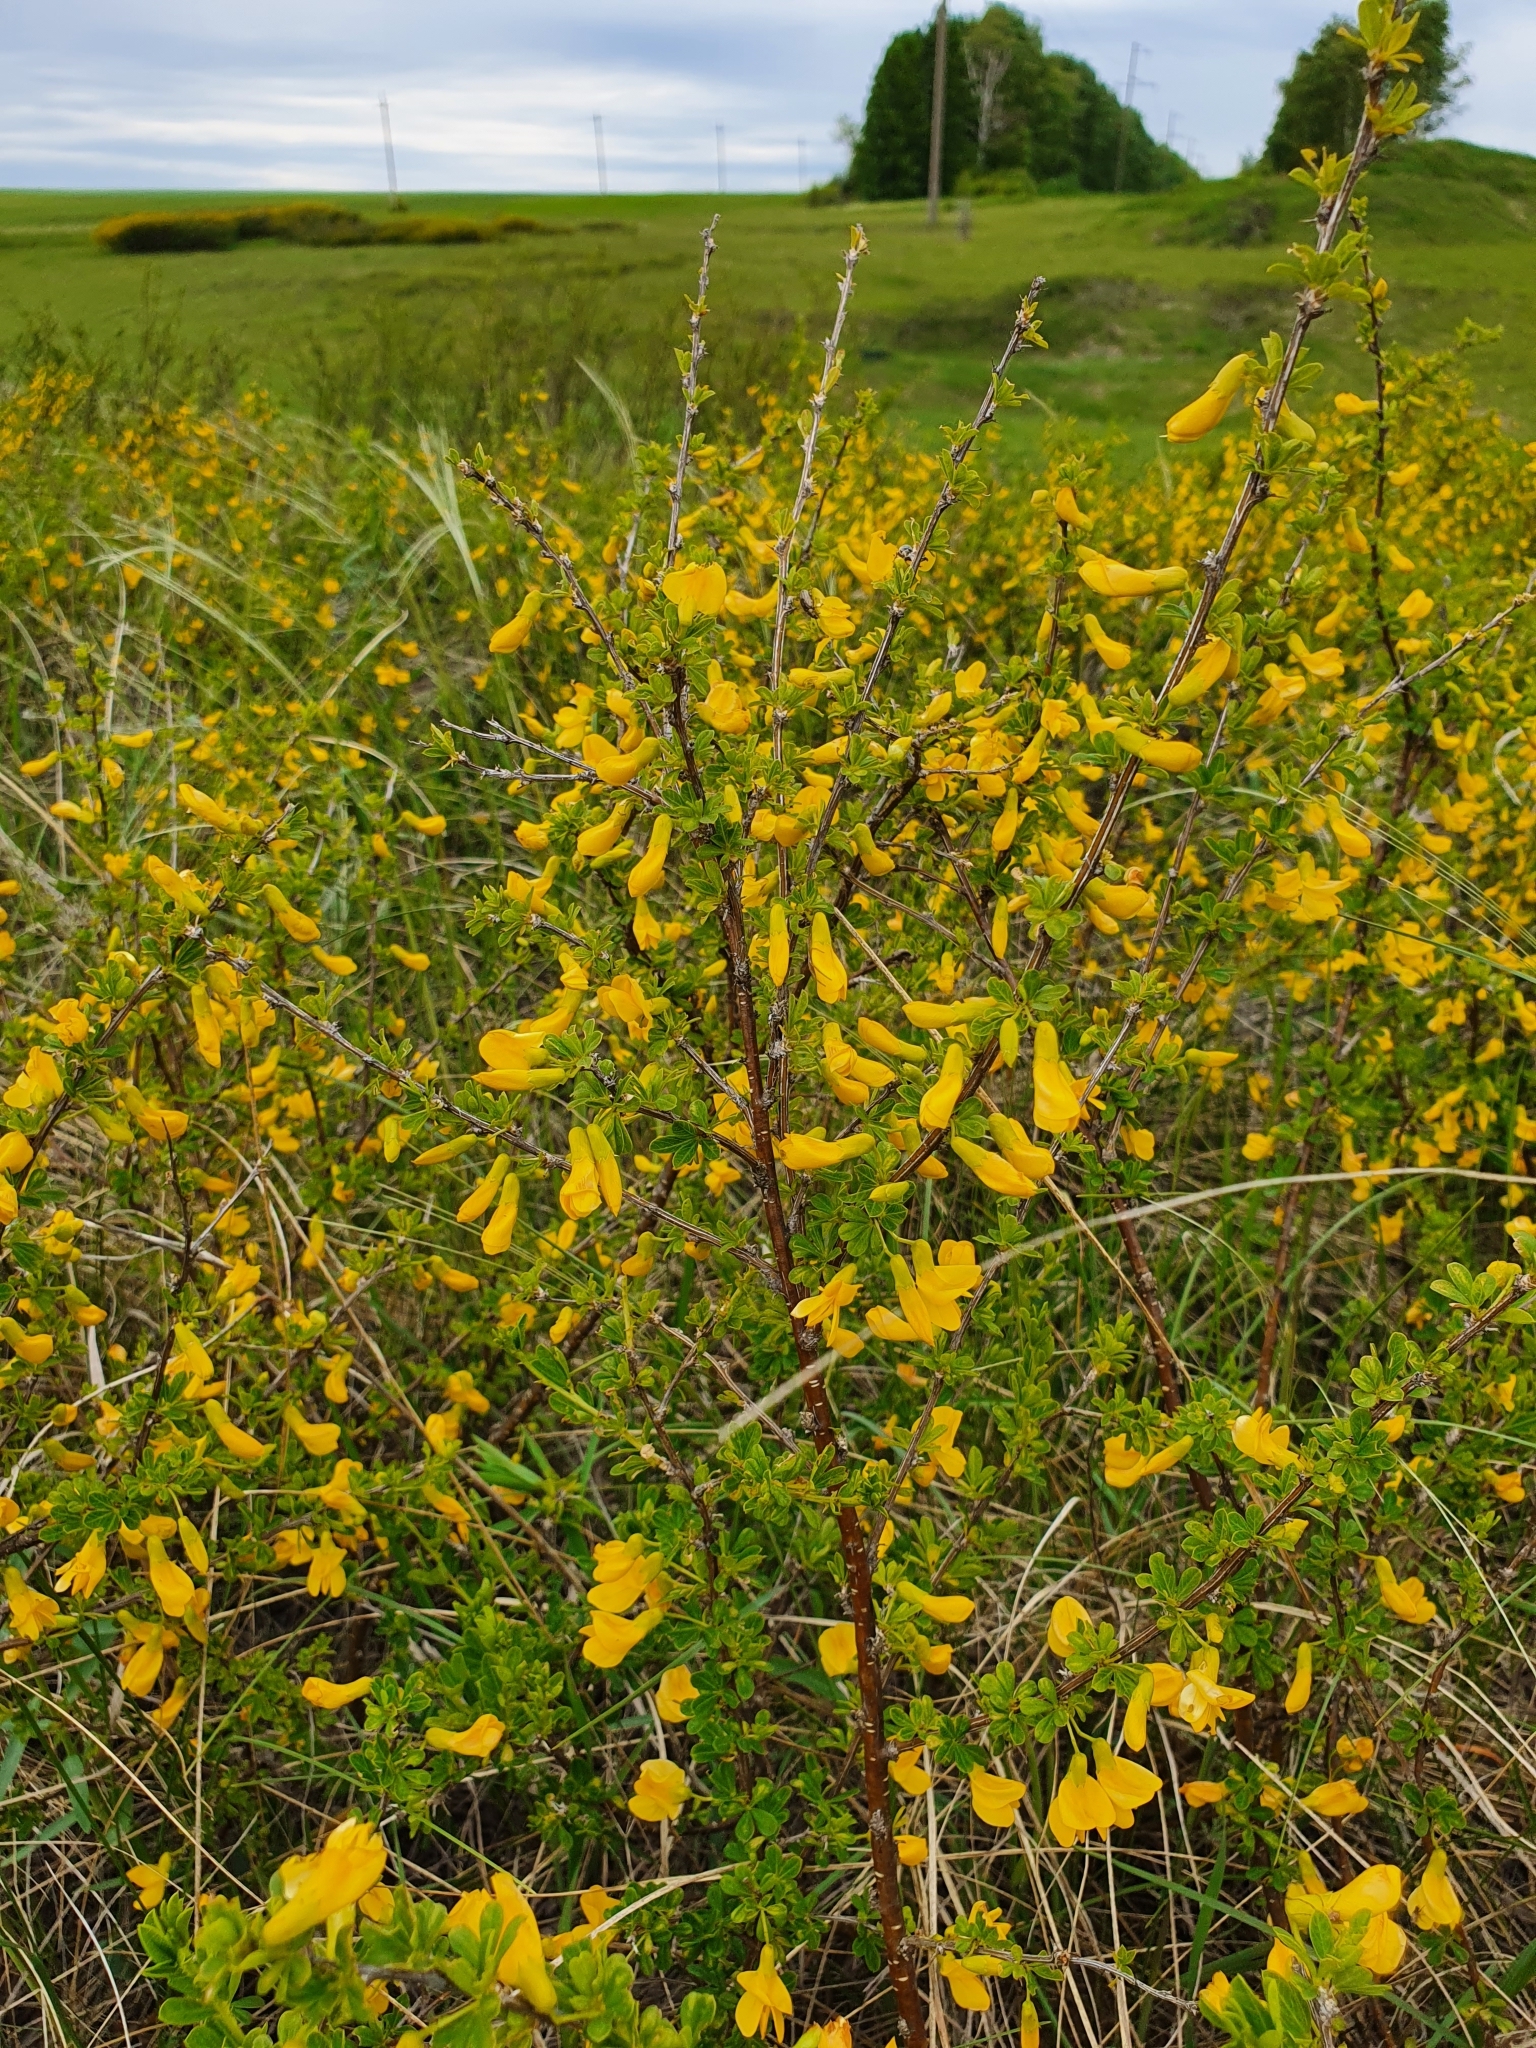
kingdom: Plantae
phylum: Tracheophyta
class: Magnoliopsida
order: Fabales
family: Fabaceae
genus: Caragana
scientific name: Caragana frutex
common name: Russian peashrub
